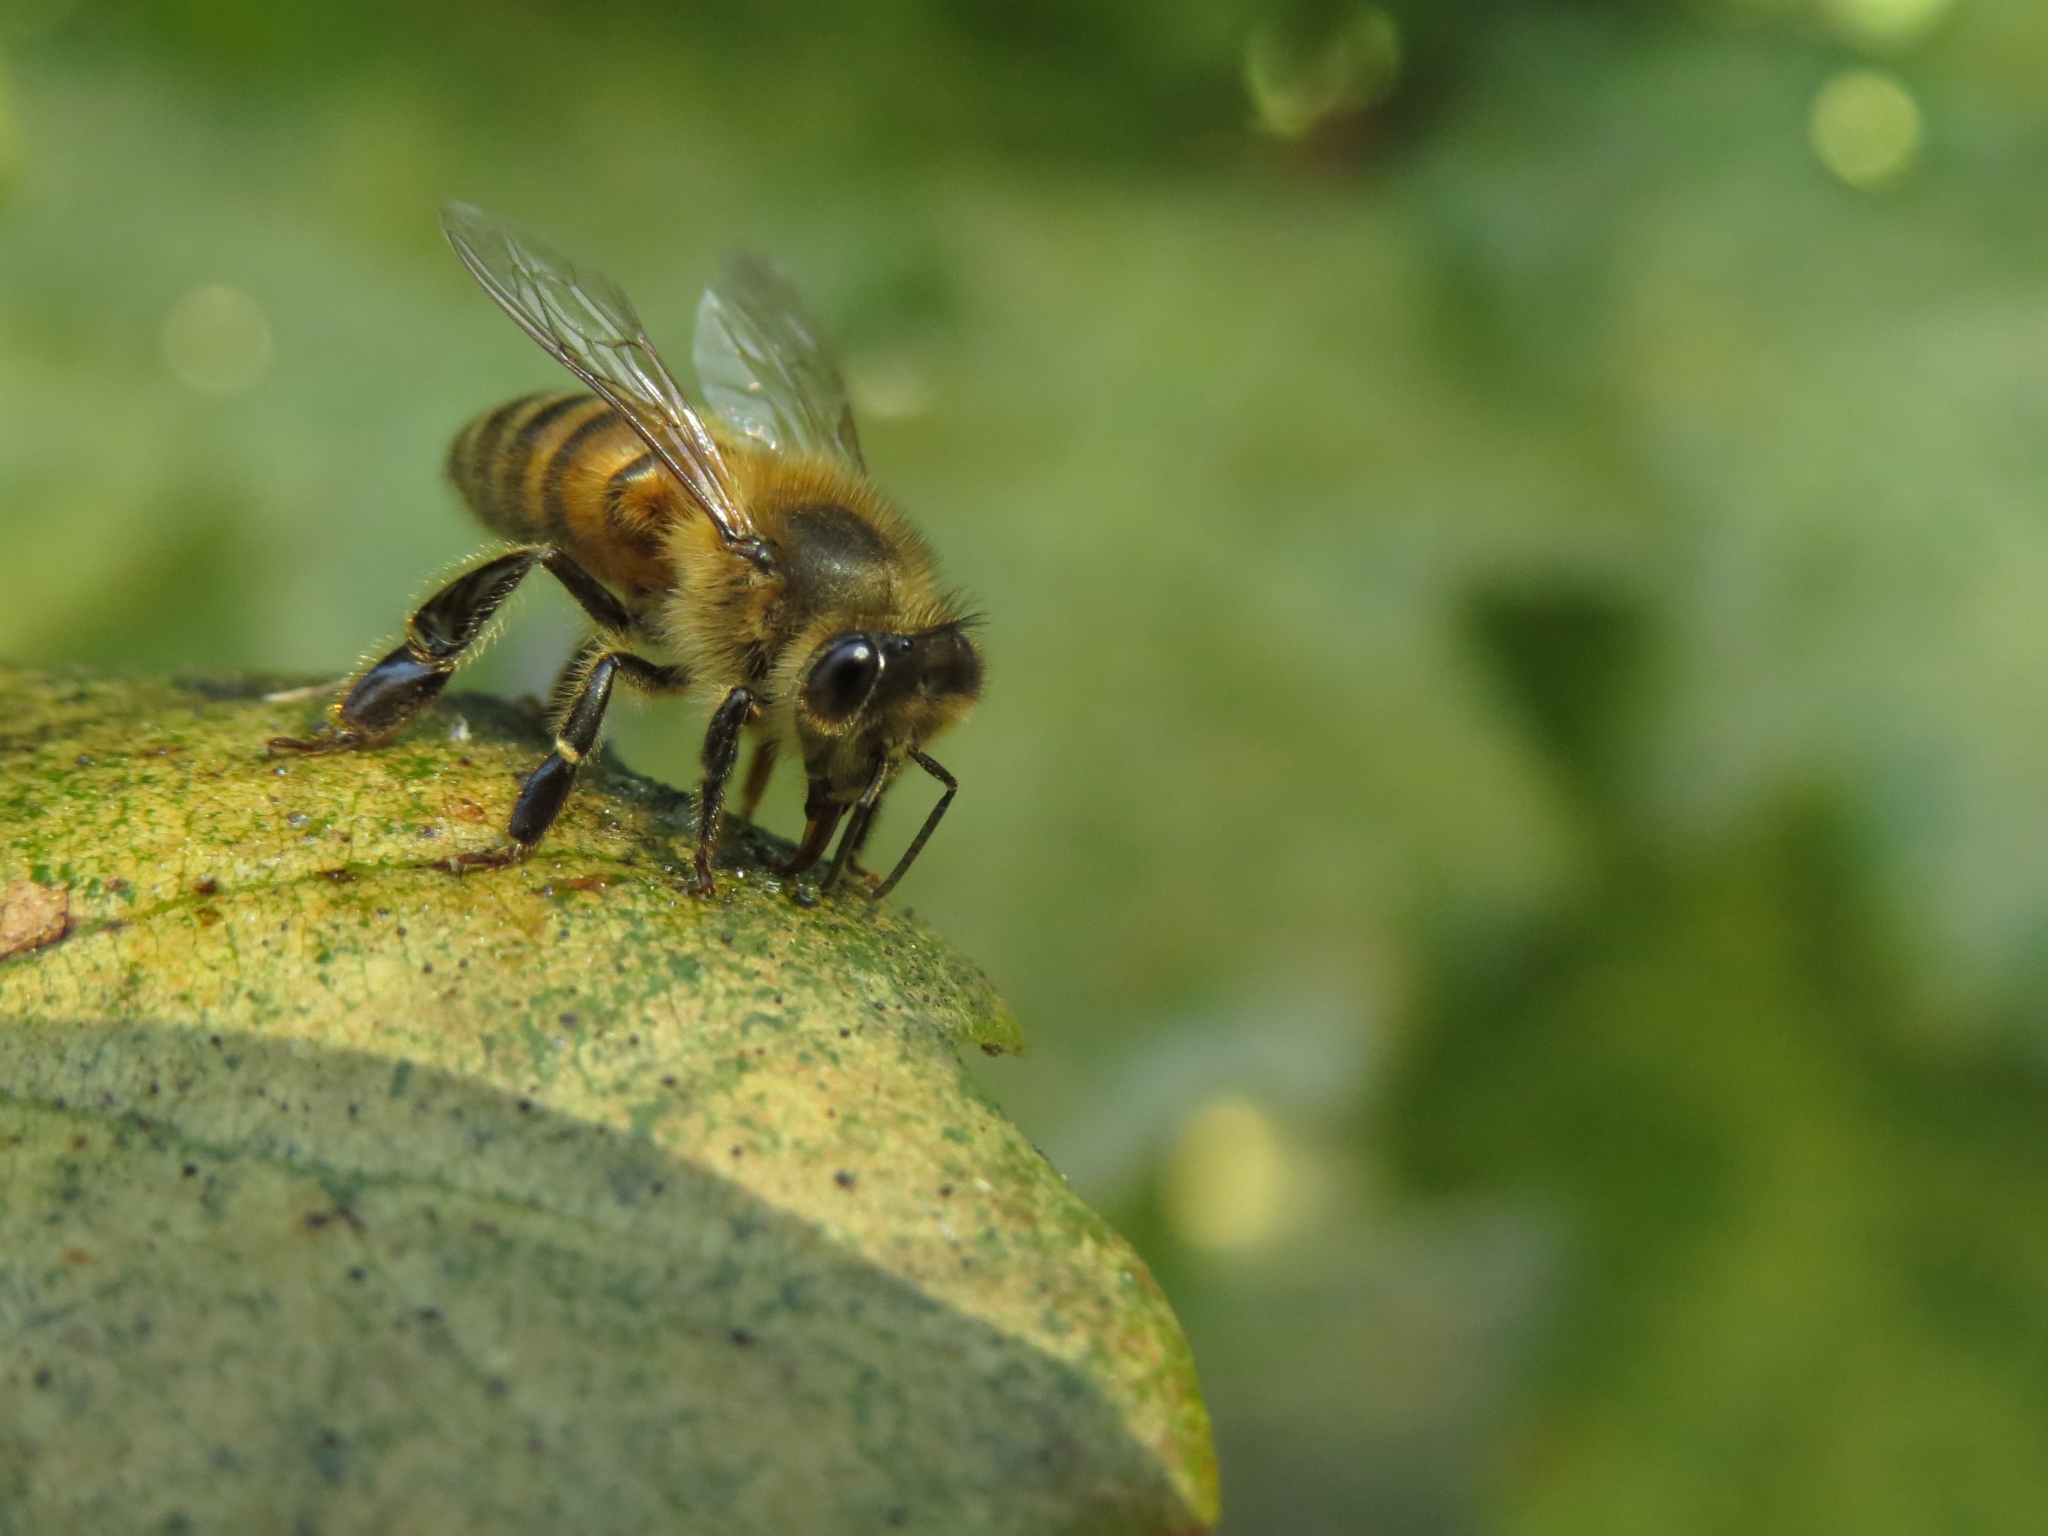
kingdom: Animalia
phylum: Arthropoda
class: Insecta
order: Hymenoptera
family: Apidae
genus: Apis
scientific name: Apis mellifera
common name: Honey bee
